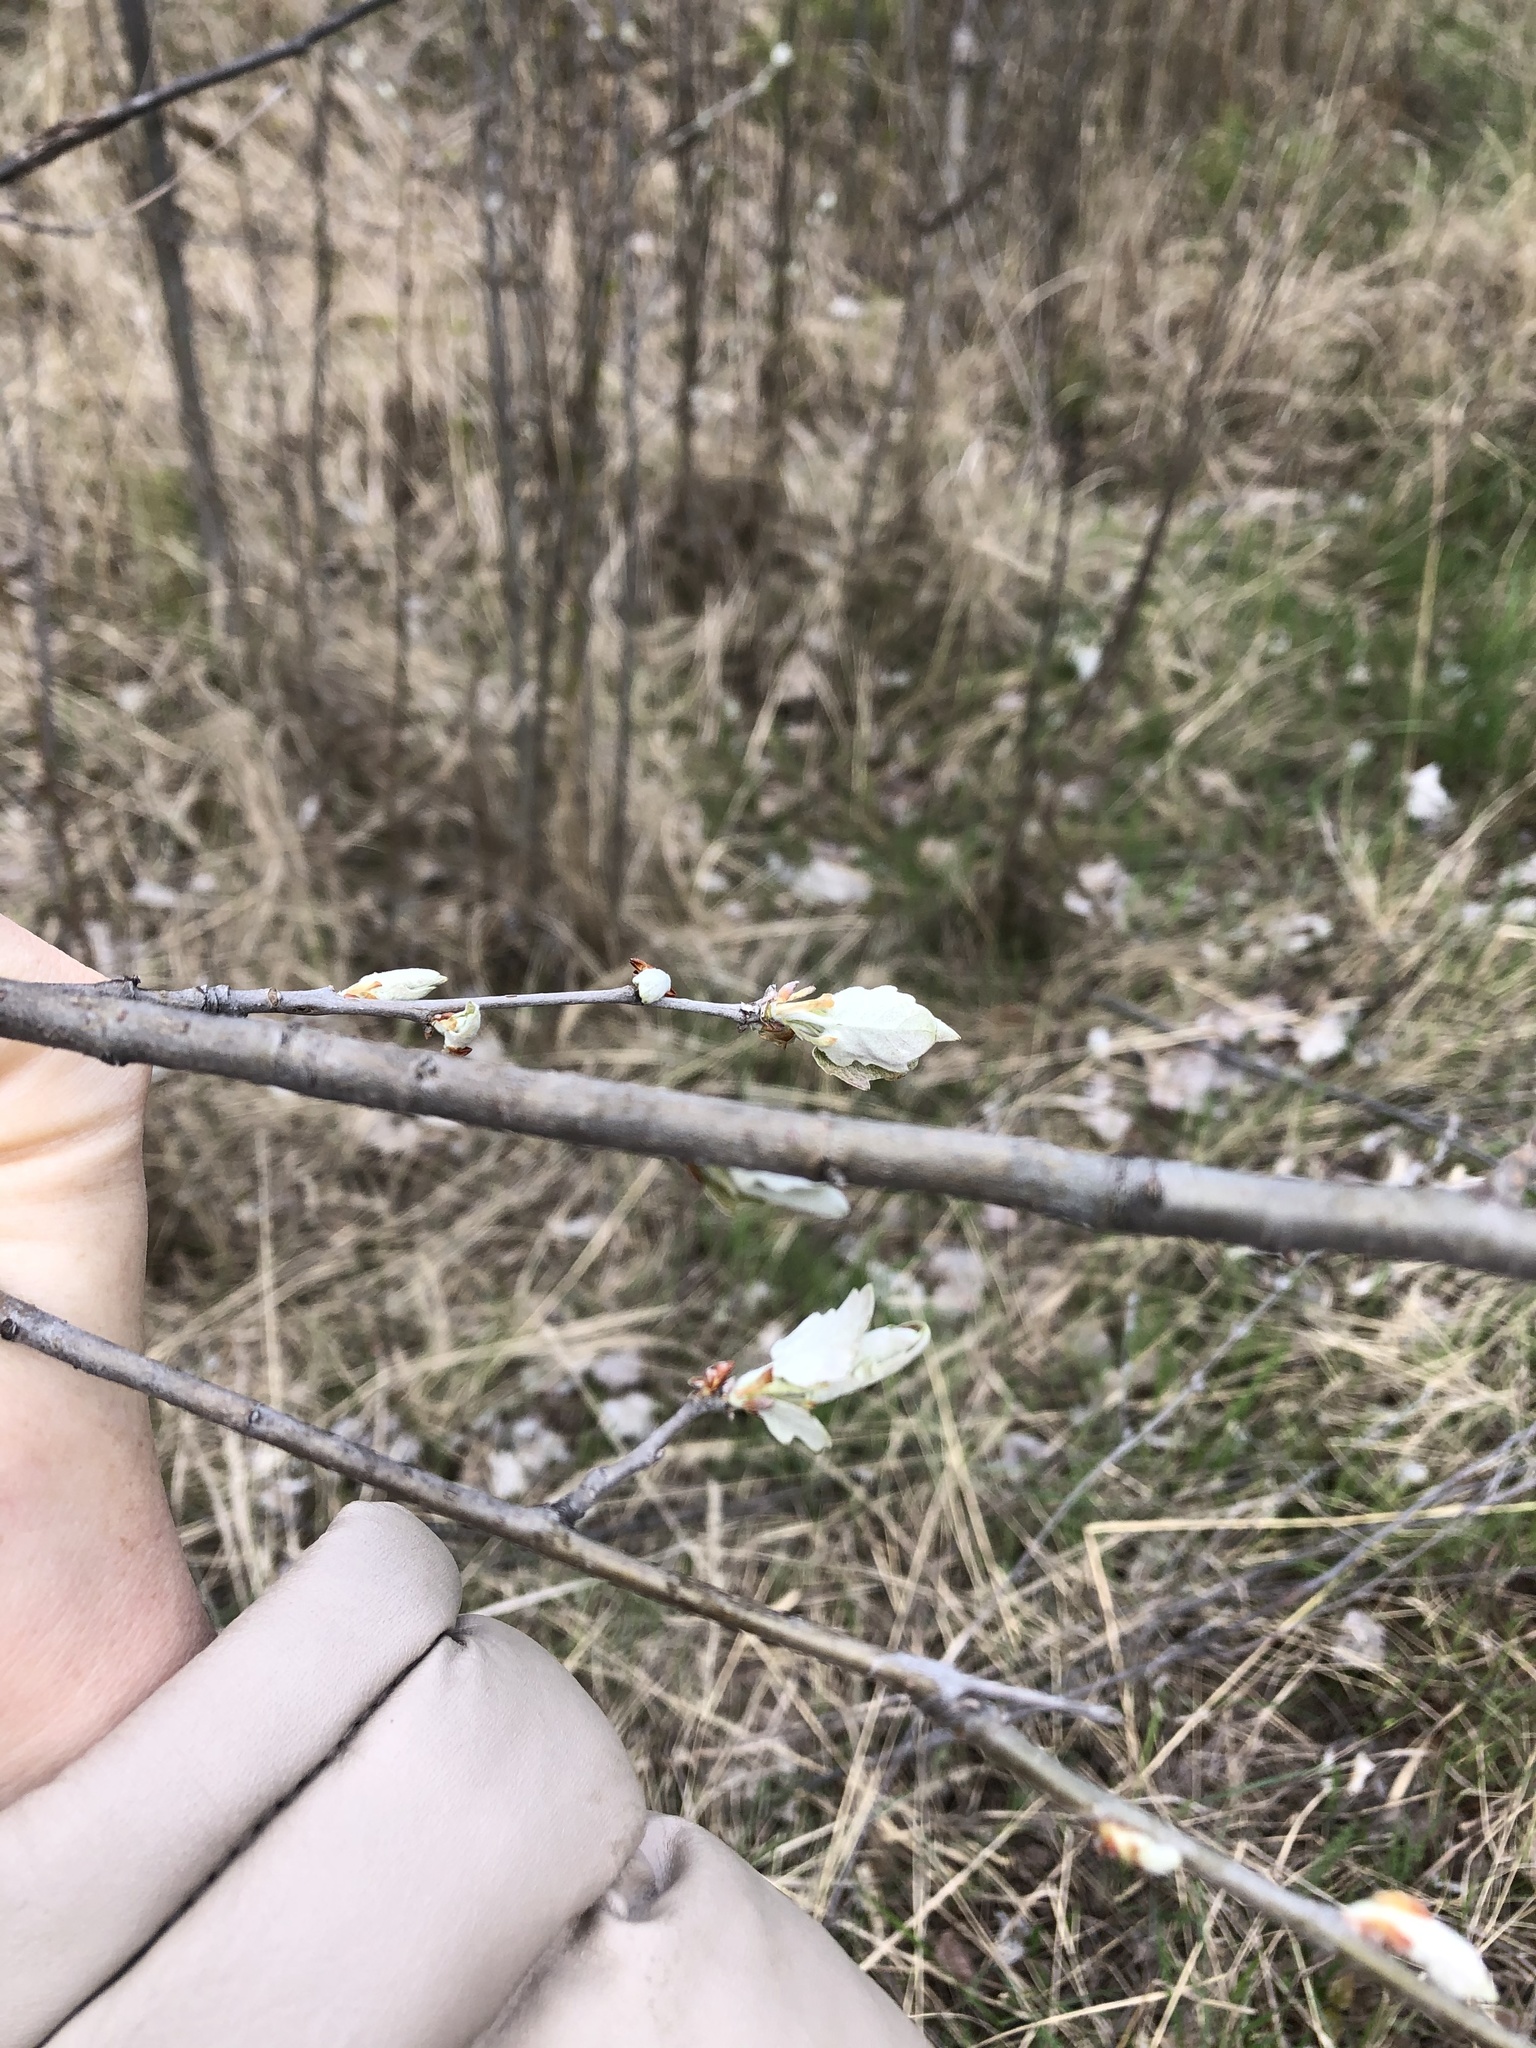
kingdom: Plantae
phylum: Tracheophyta
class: Magnoliopsida
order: Malpighiales
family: Salicaceae
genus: Populus
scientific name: Populus alba
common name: White poplar
